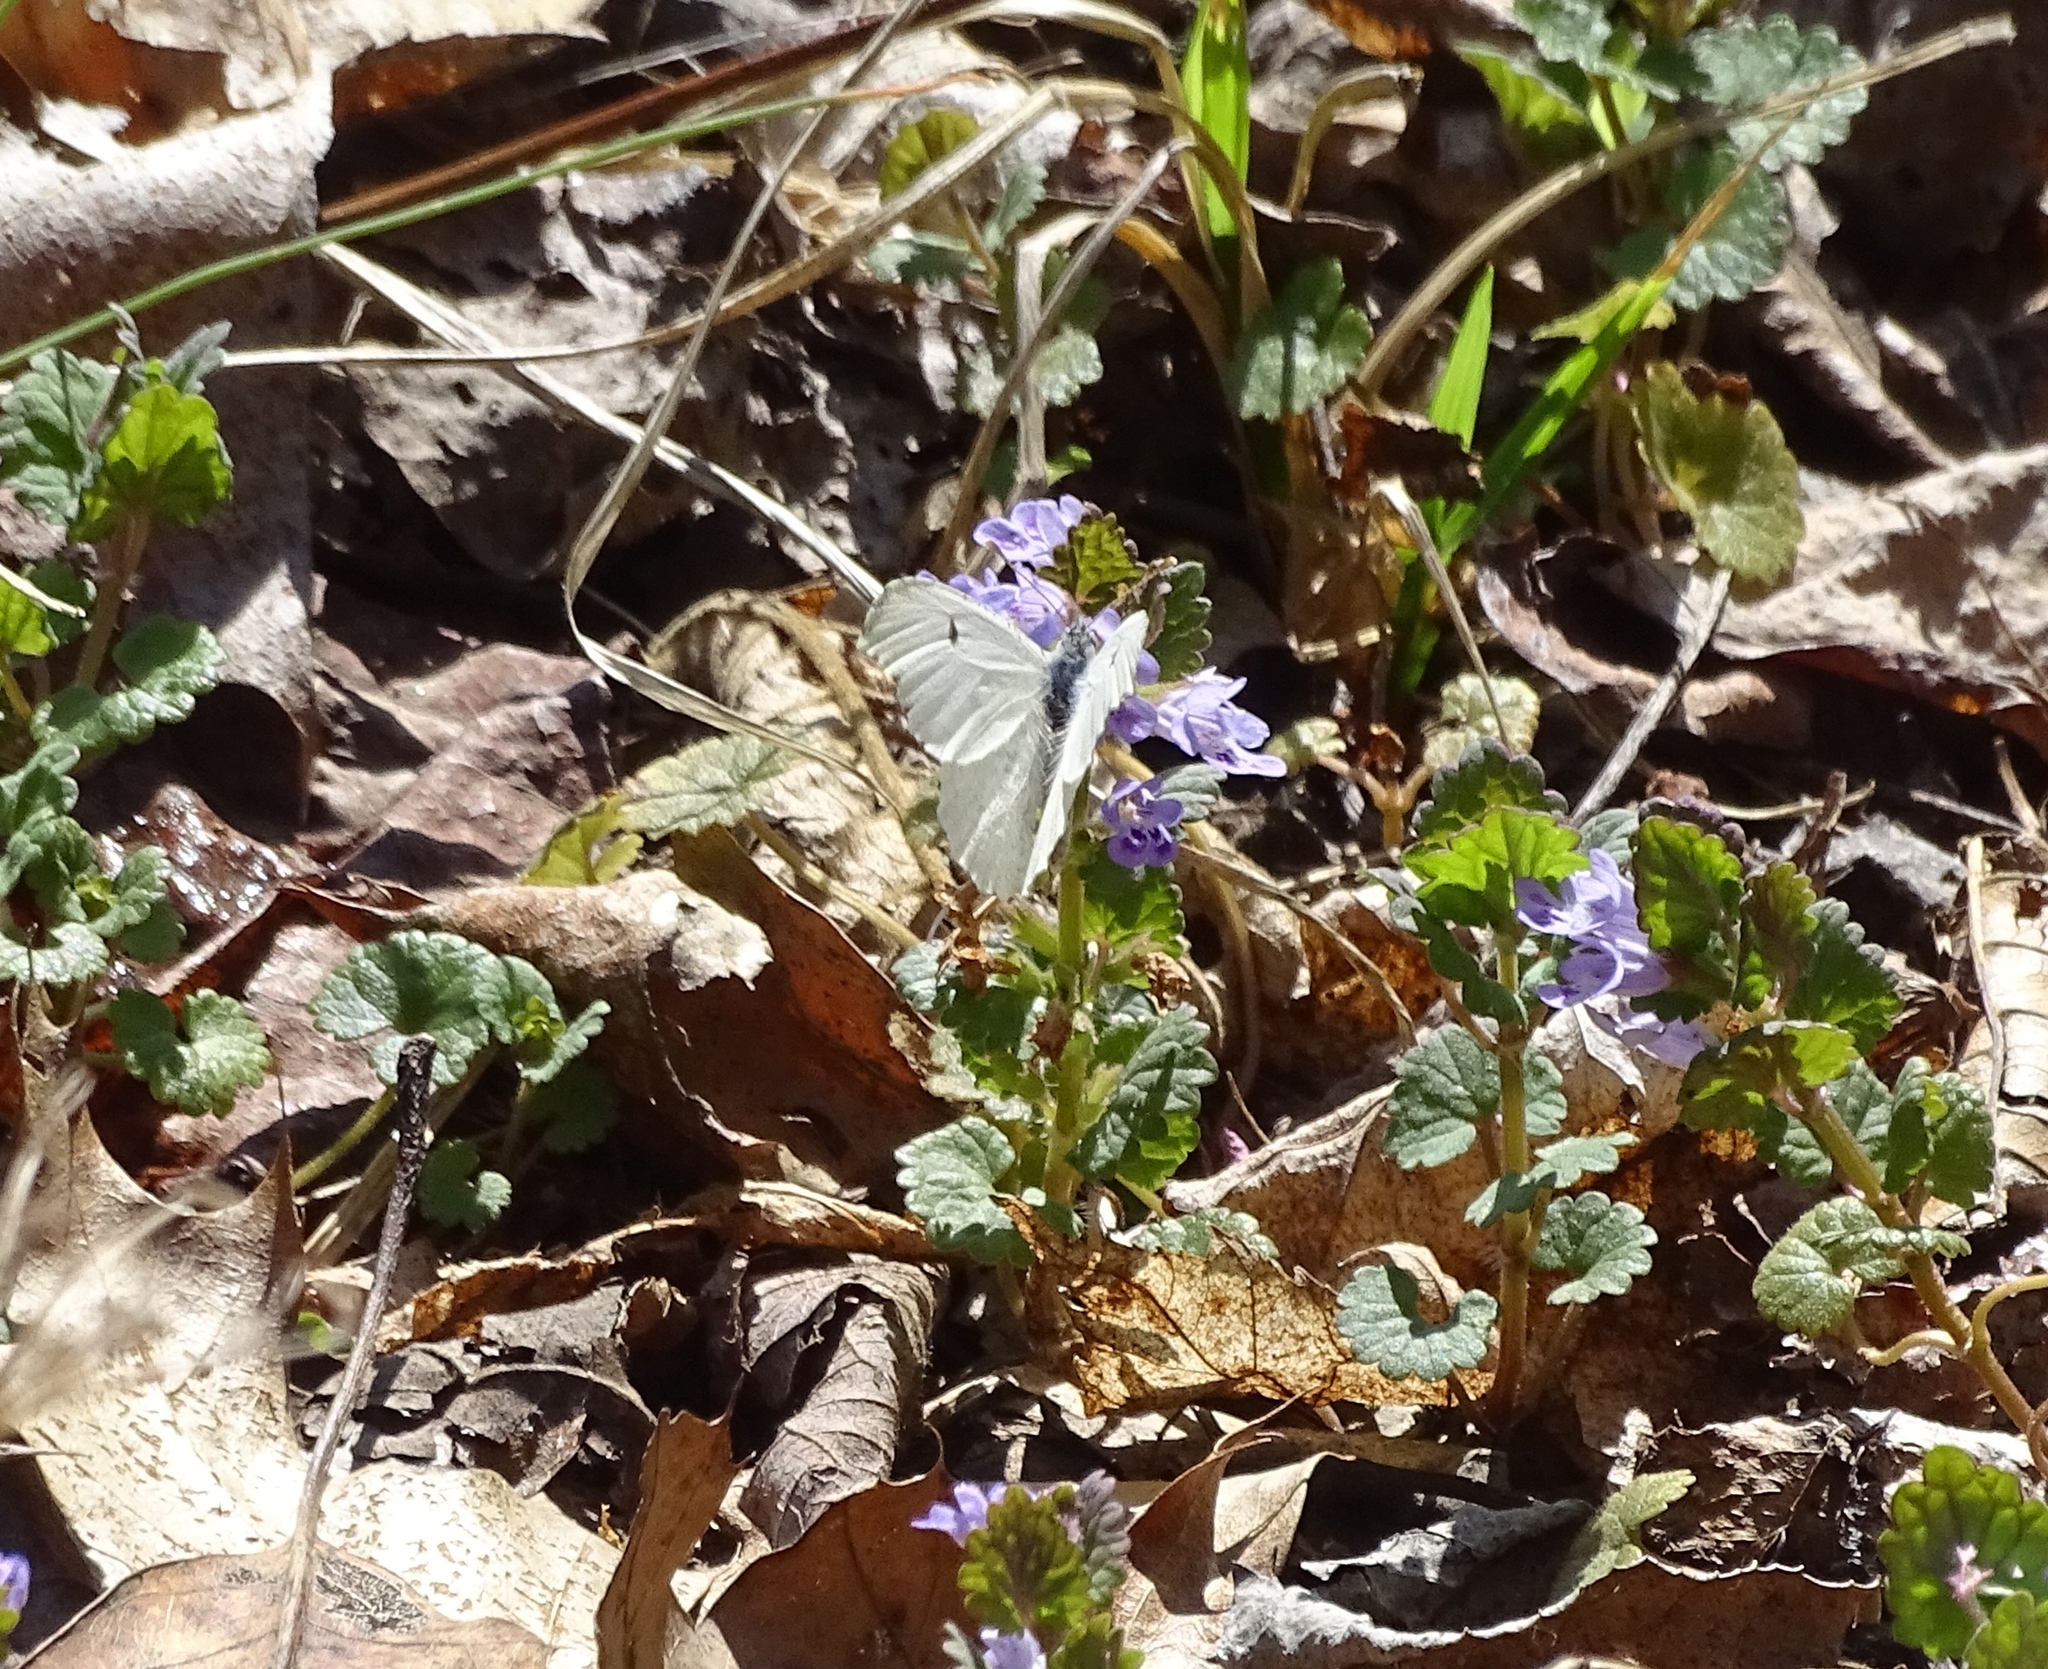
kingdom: Animalia
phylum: Arthropoda
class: Insecta
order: Lepidoptera
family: Pieridae
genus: Anthocharis
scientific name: Anthocharis midea
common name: Falcate orangetip
